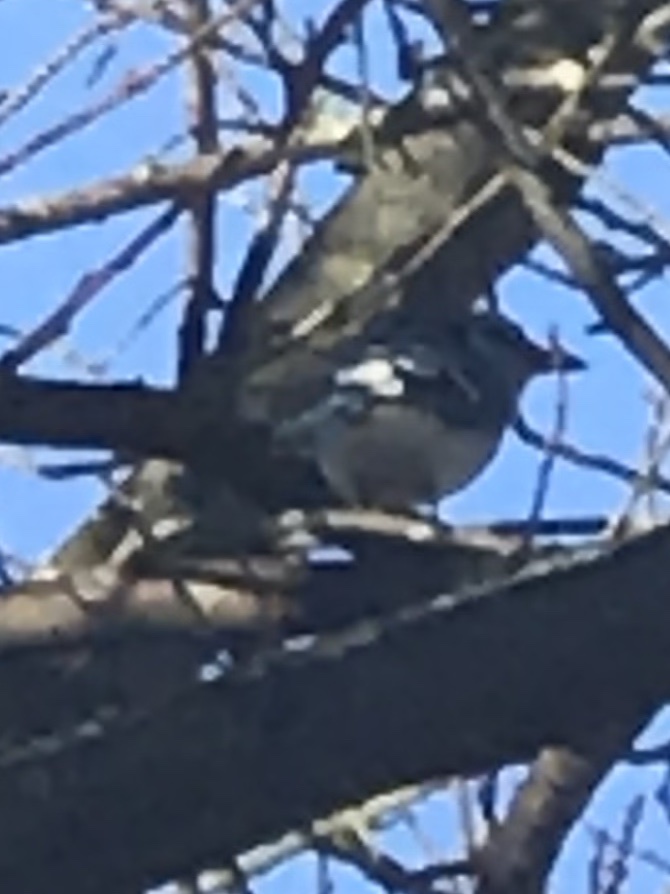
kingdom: Animalia
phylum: Chordata
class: Aves
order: Passeriformes
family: Corvidae
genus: Cyanocitta
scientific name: Cyanocitta cristata
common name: Blue jay
